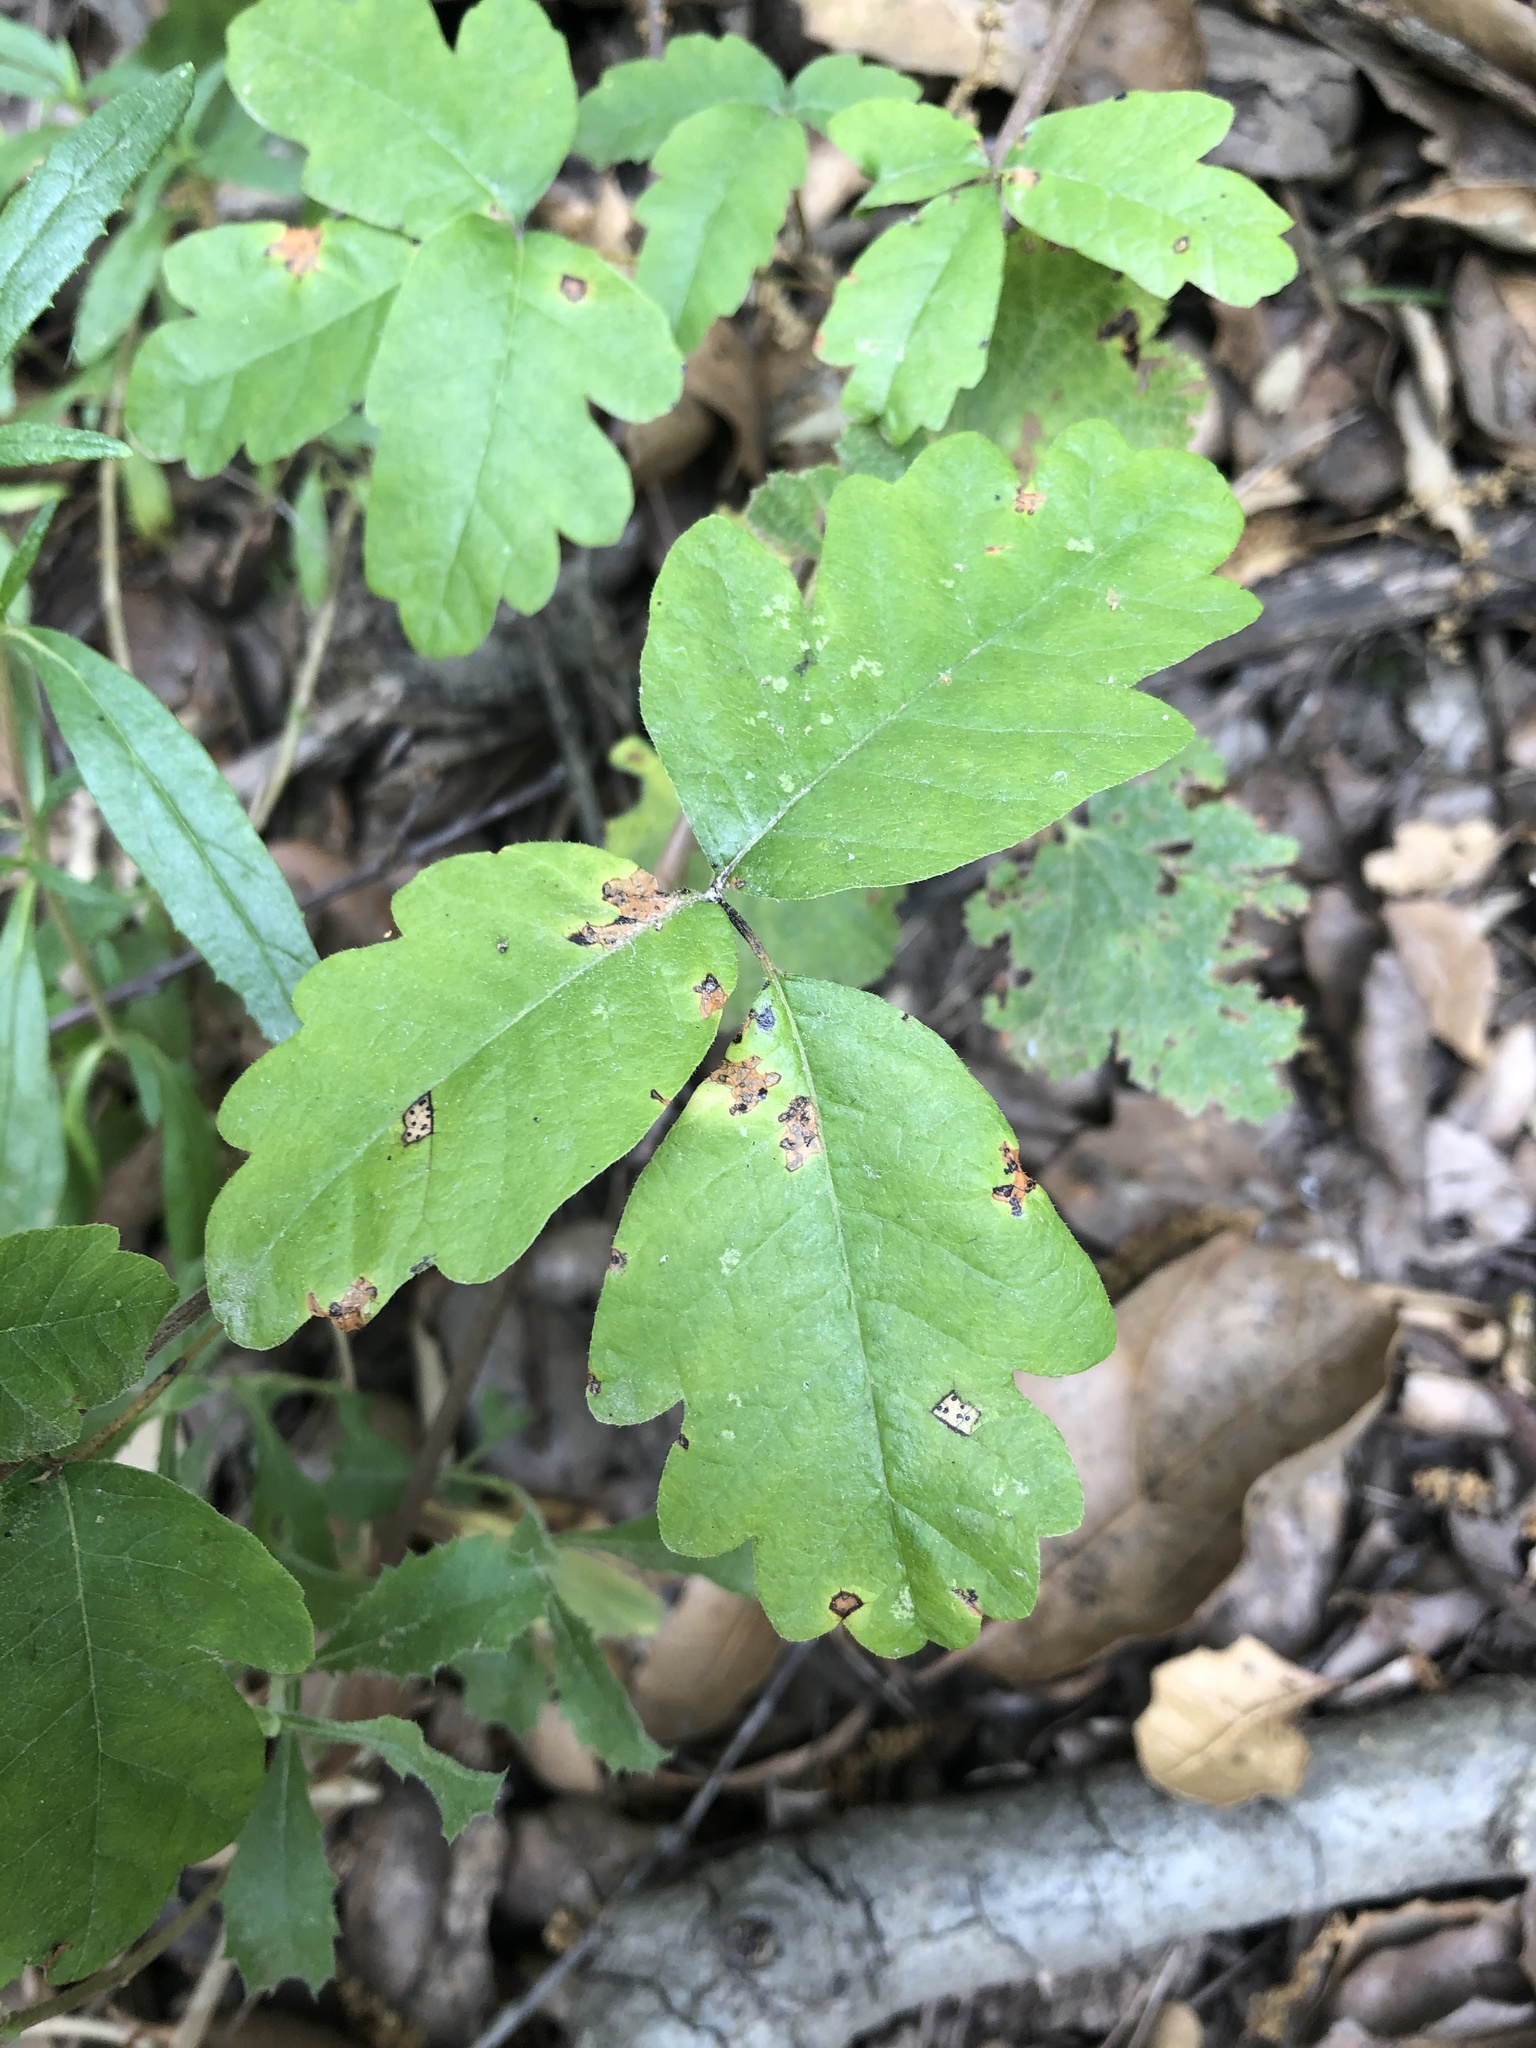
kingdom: Plantae
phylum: Tracheophyta
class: Magnoliopsida
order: Sapindales
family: Anacardiaceae
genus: Toxicodendron
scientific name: Toxicodendron diversilobum
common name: Pacific poison-oak
